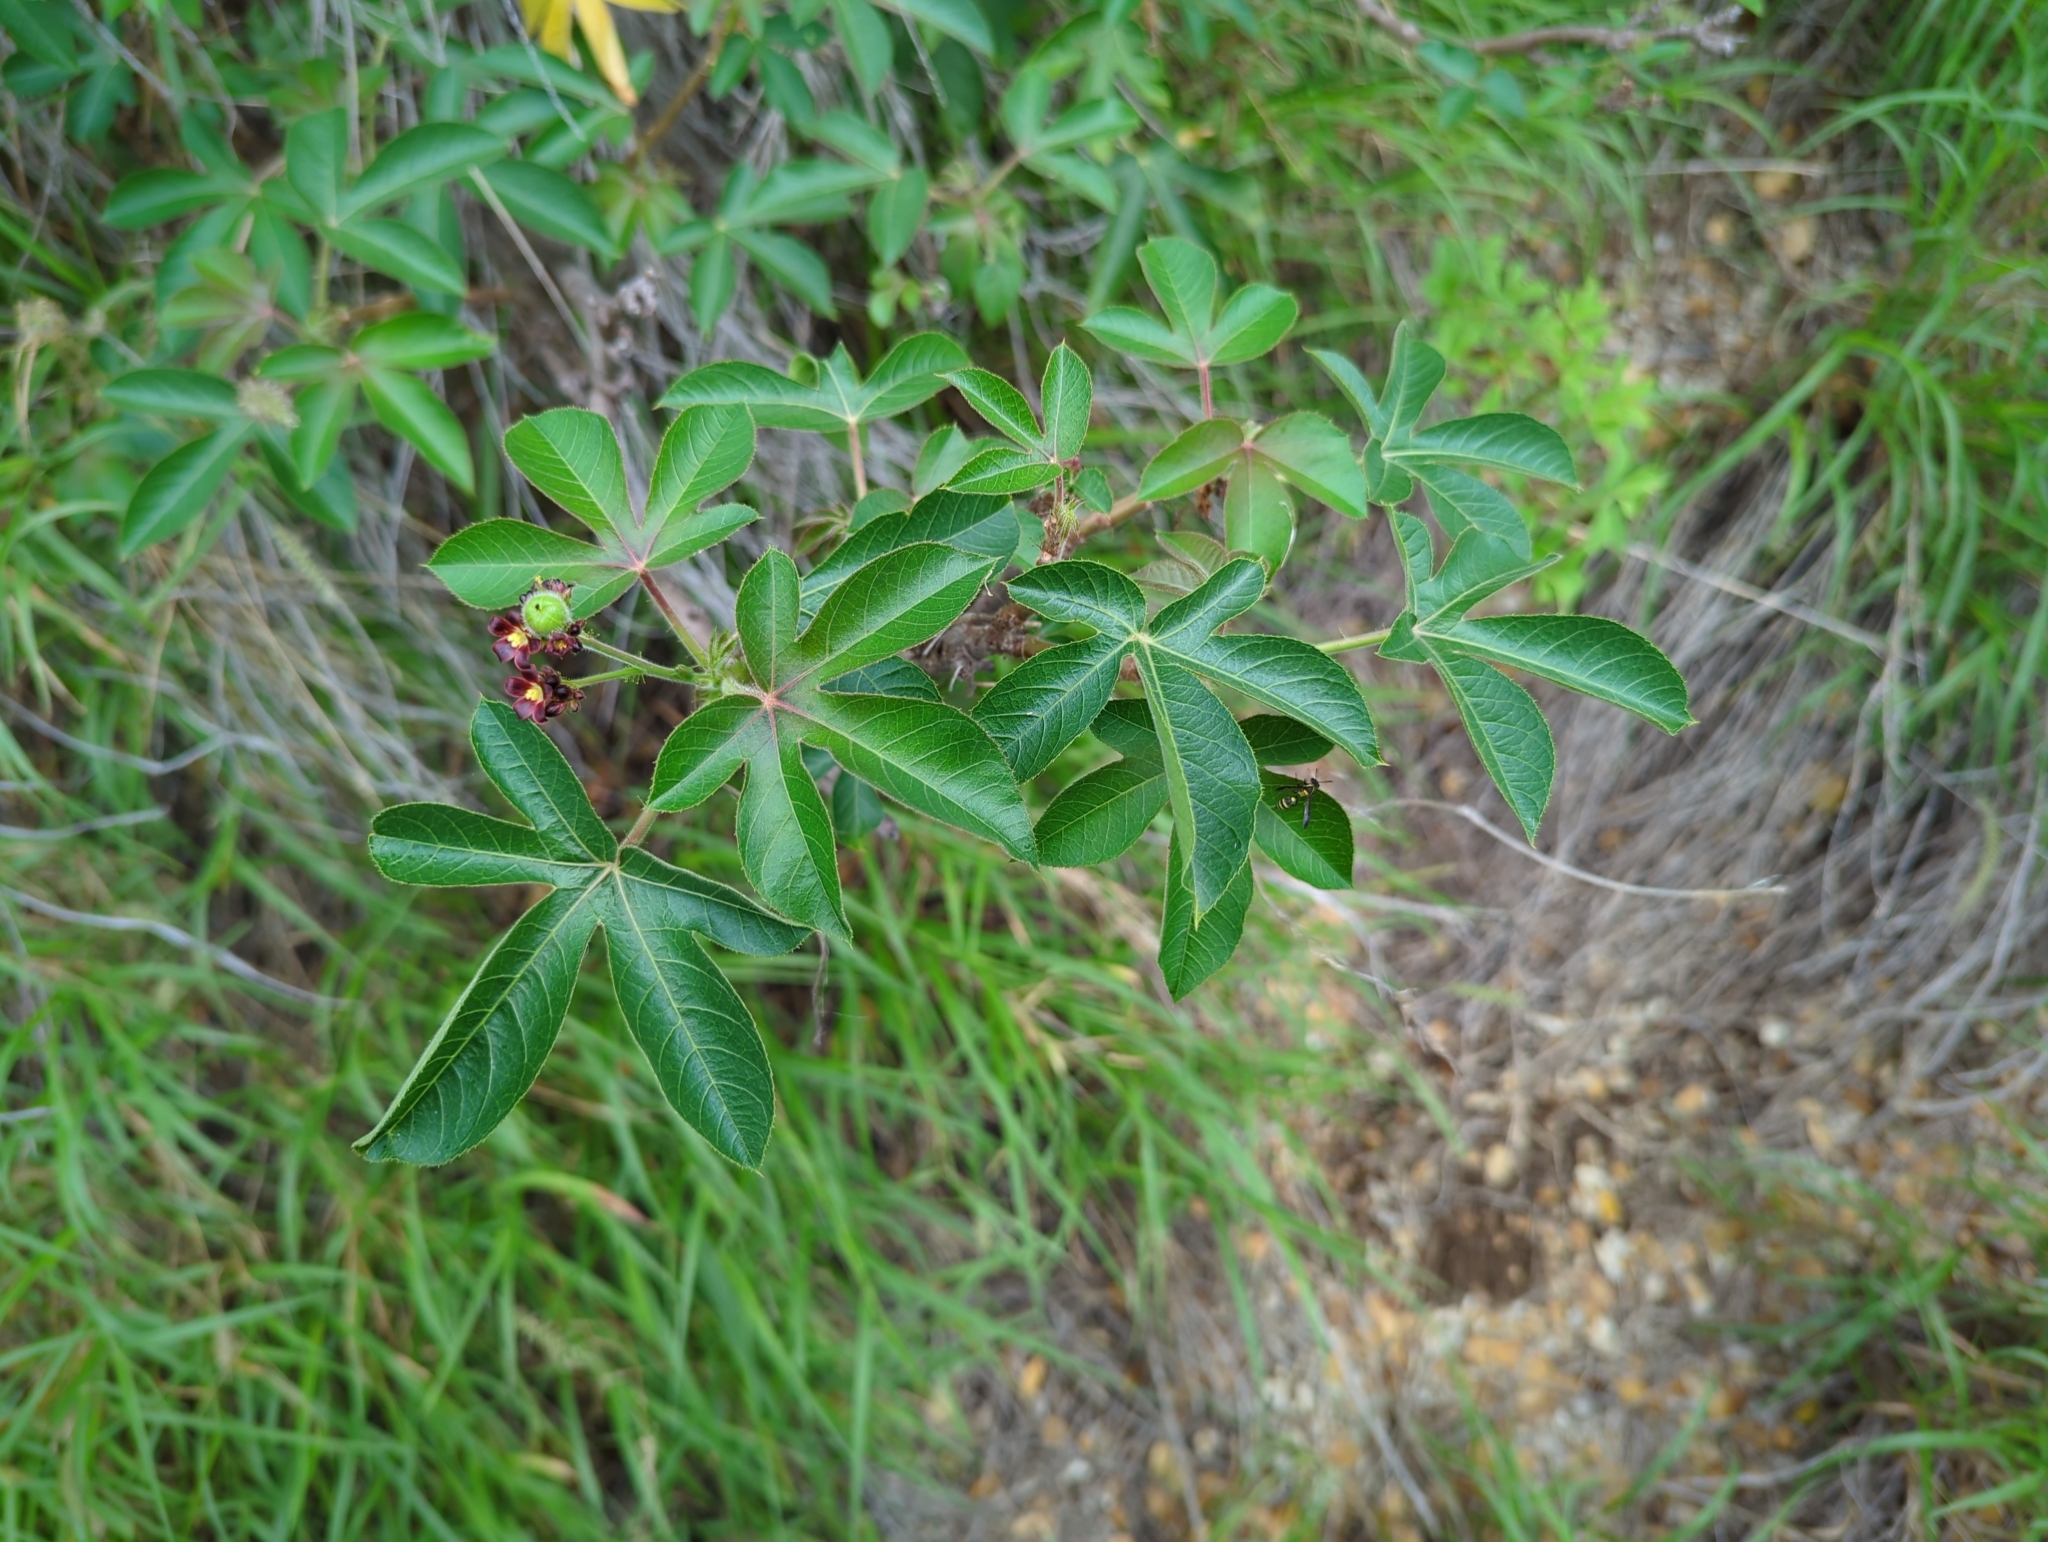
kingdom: Plantae
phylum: Tracheophyta
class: Magnoliopsida
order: Malpighiales
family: Euphorbiaceae
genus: Jatropha
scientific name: Jatropha gossypiifolia
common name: Bellyache bush
